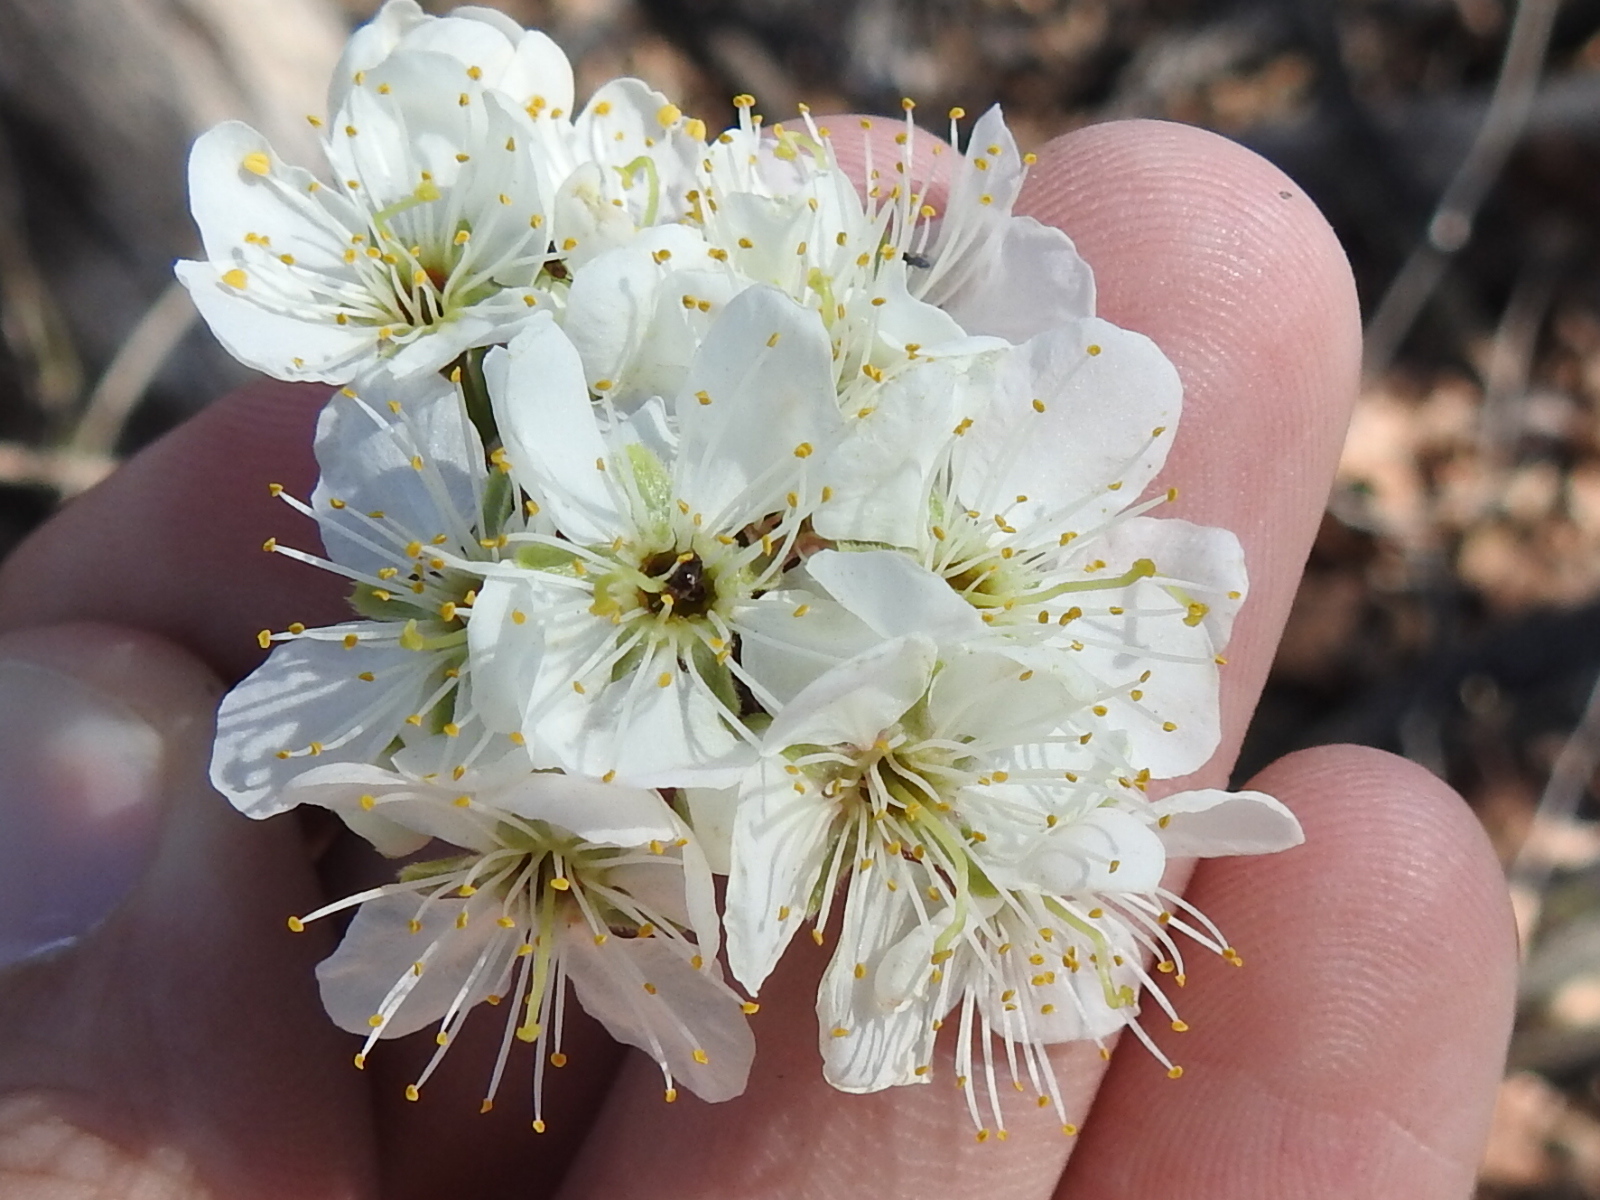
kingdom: Plantae
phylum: Tracheophyta
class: Magnoliopsida
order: Rosales
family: Rosaceae
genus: Prunus
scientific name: Prunus mexicana
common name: Mexican plum
